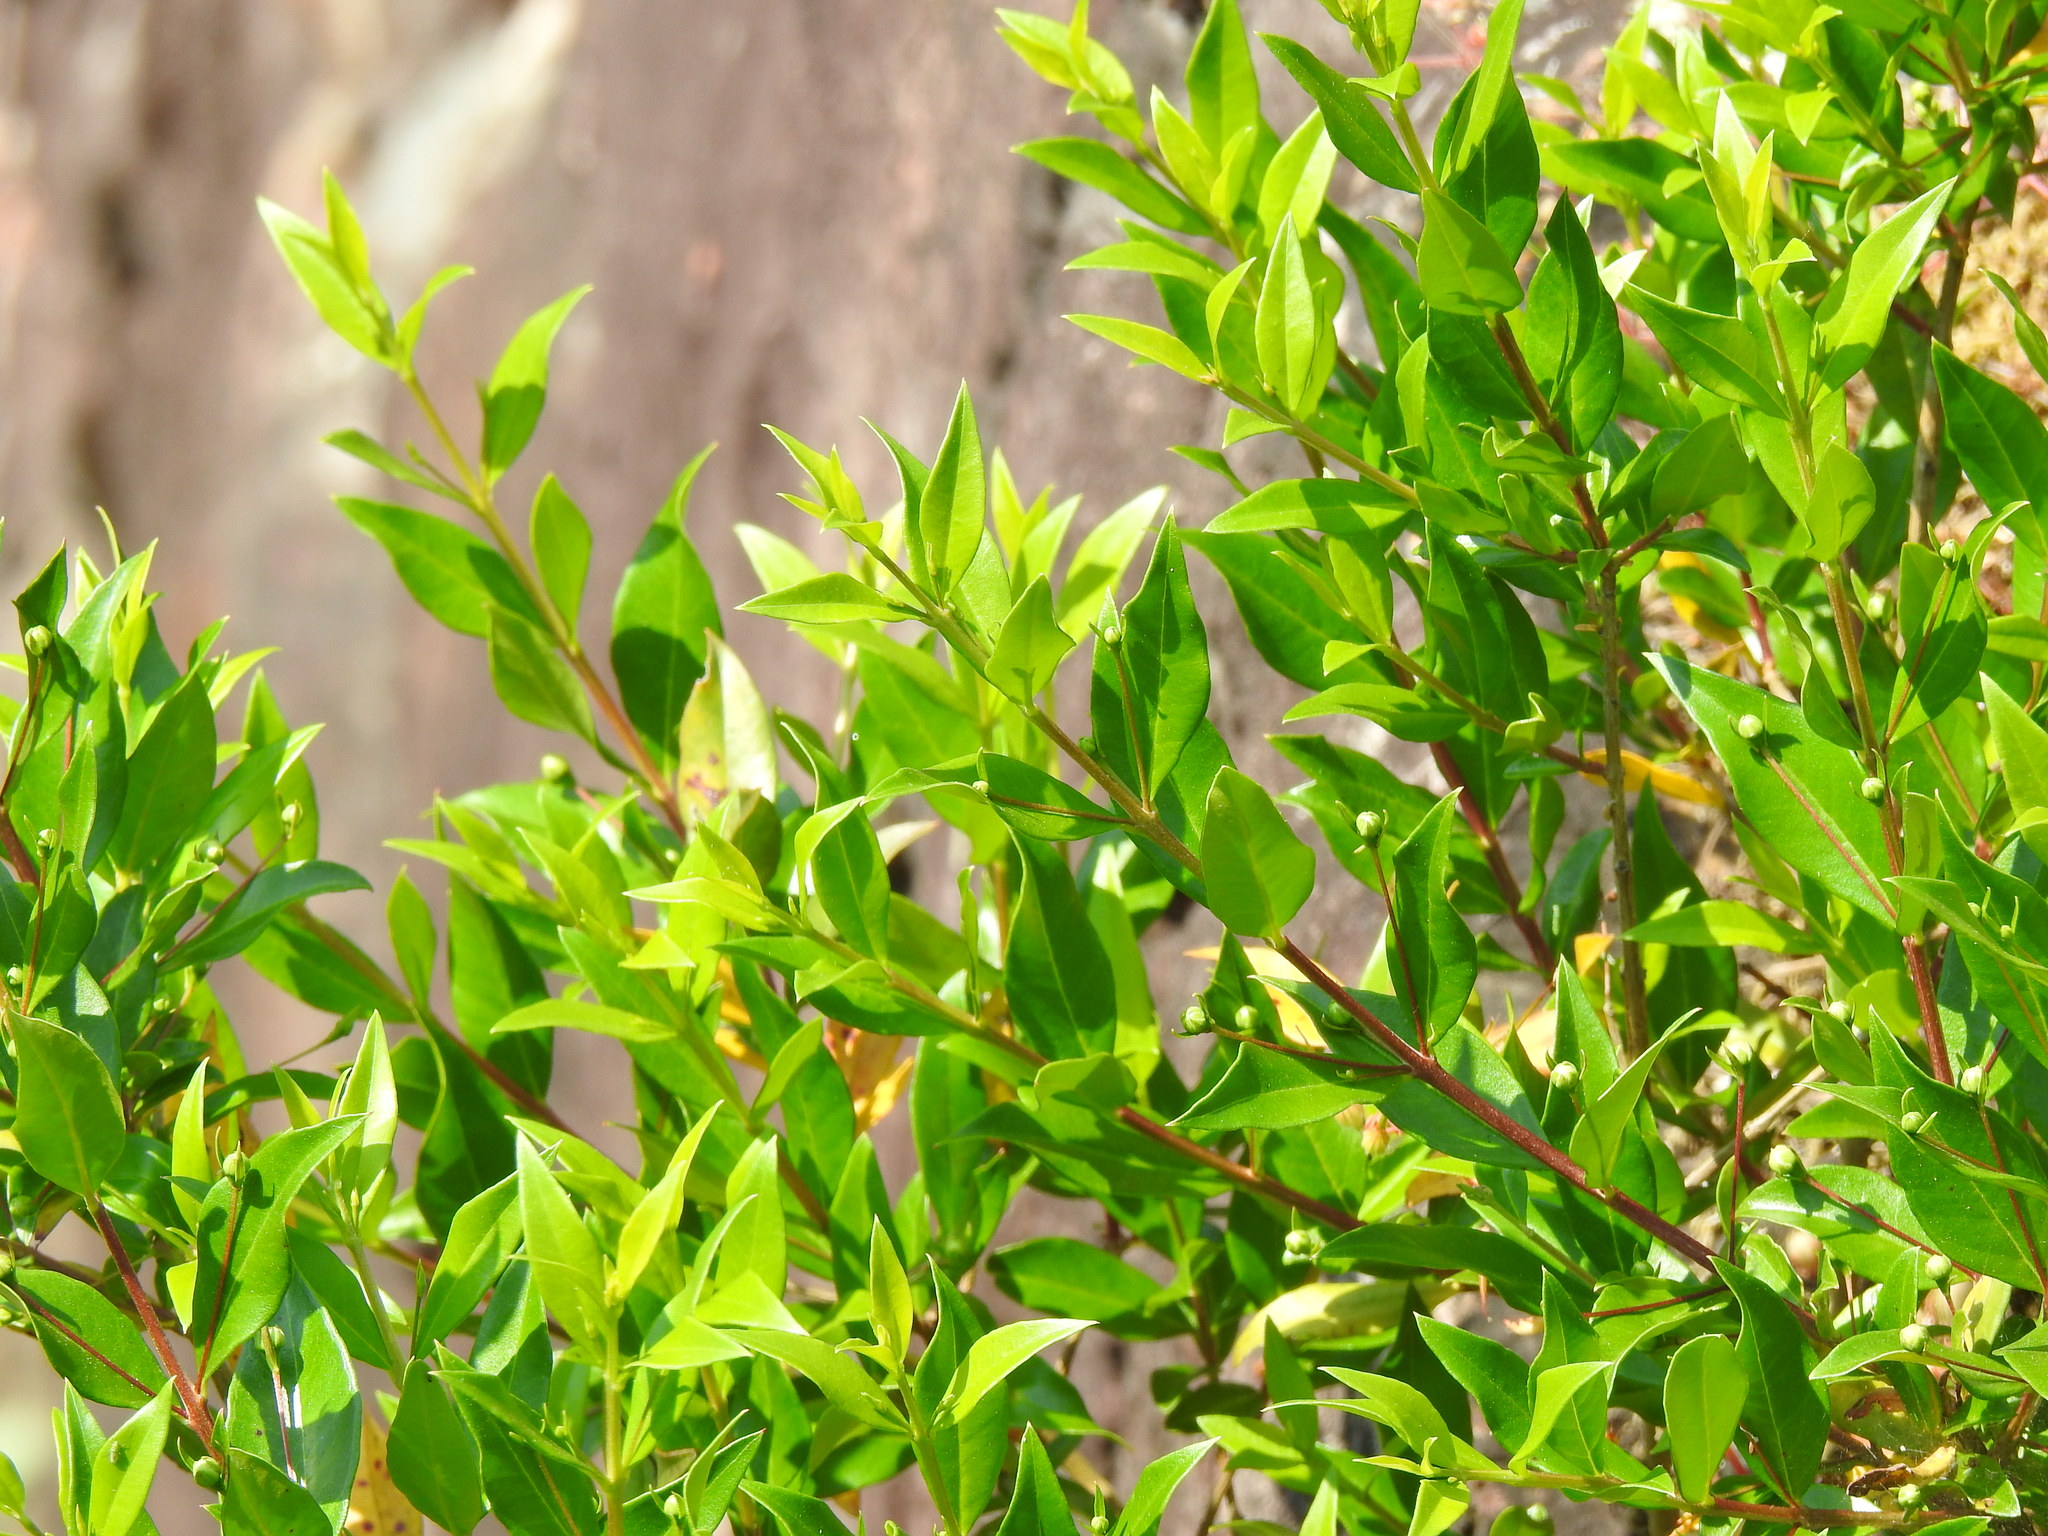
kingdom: Plantae
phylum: Tracheophyta
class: Magnoliopsida
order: Myrtales
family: Myrtaceae
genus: Myrtus
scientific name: Myrtus communis
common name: Myrtle
